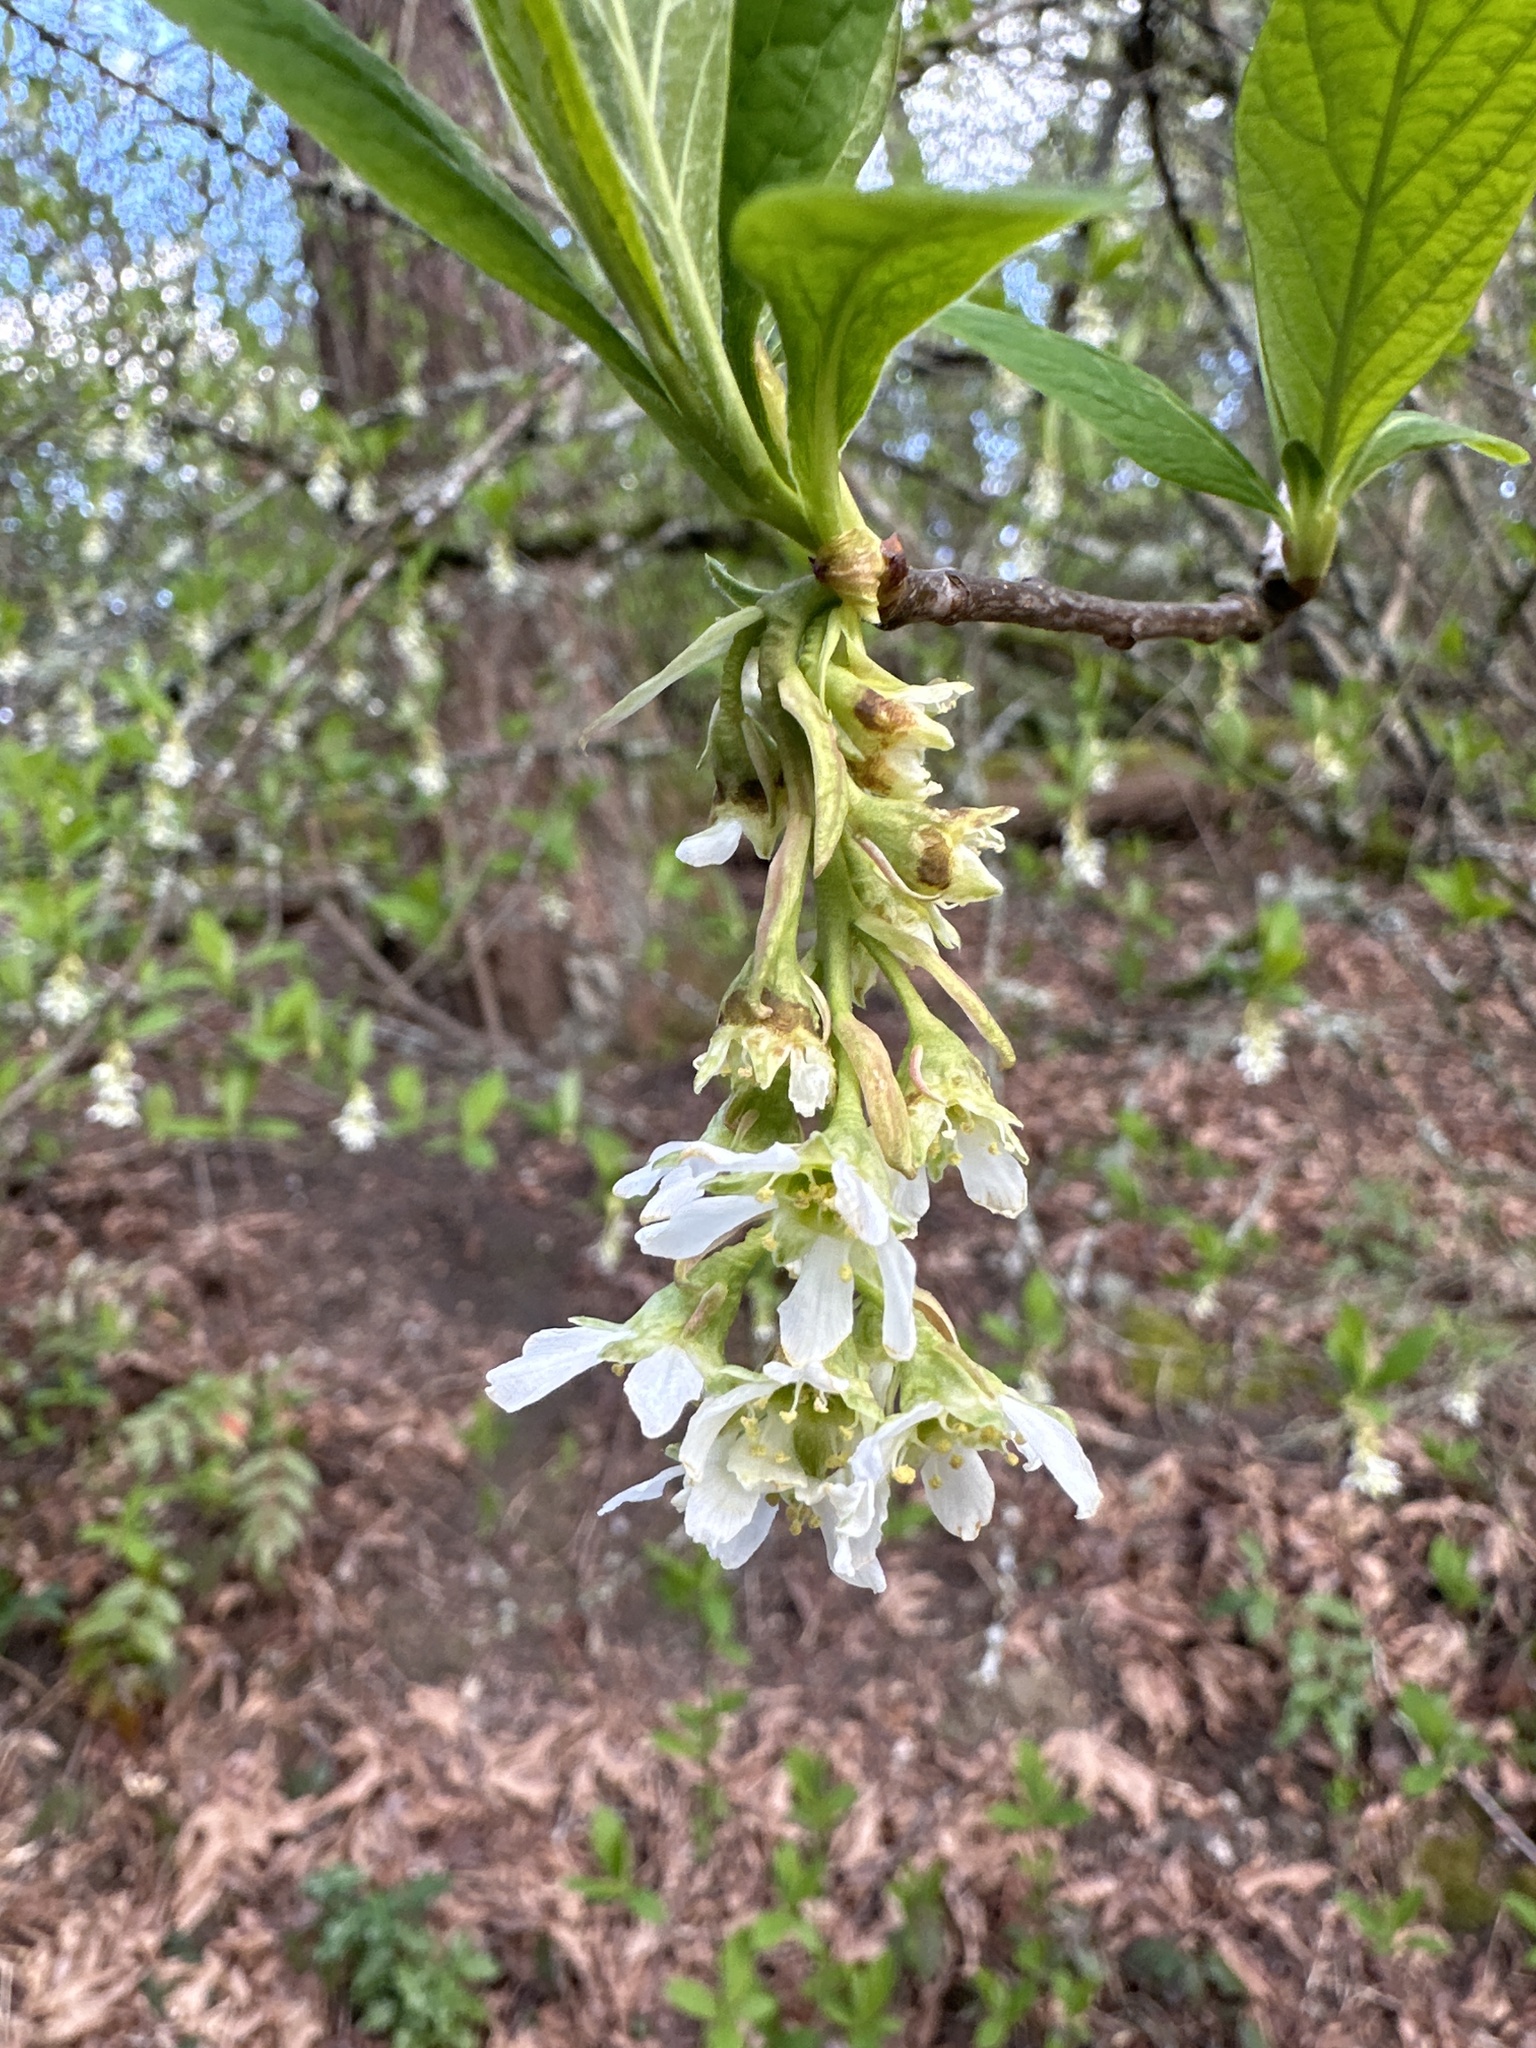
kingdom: Plantae
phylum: Tracheophyta
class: Magnoliopsida
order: Rosales
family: Rosaceae
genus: Oemleria
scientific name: Oemleria cerasiformis
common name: Osoberry
